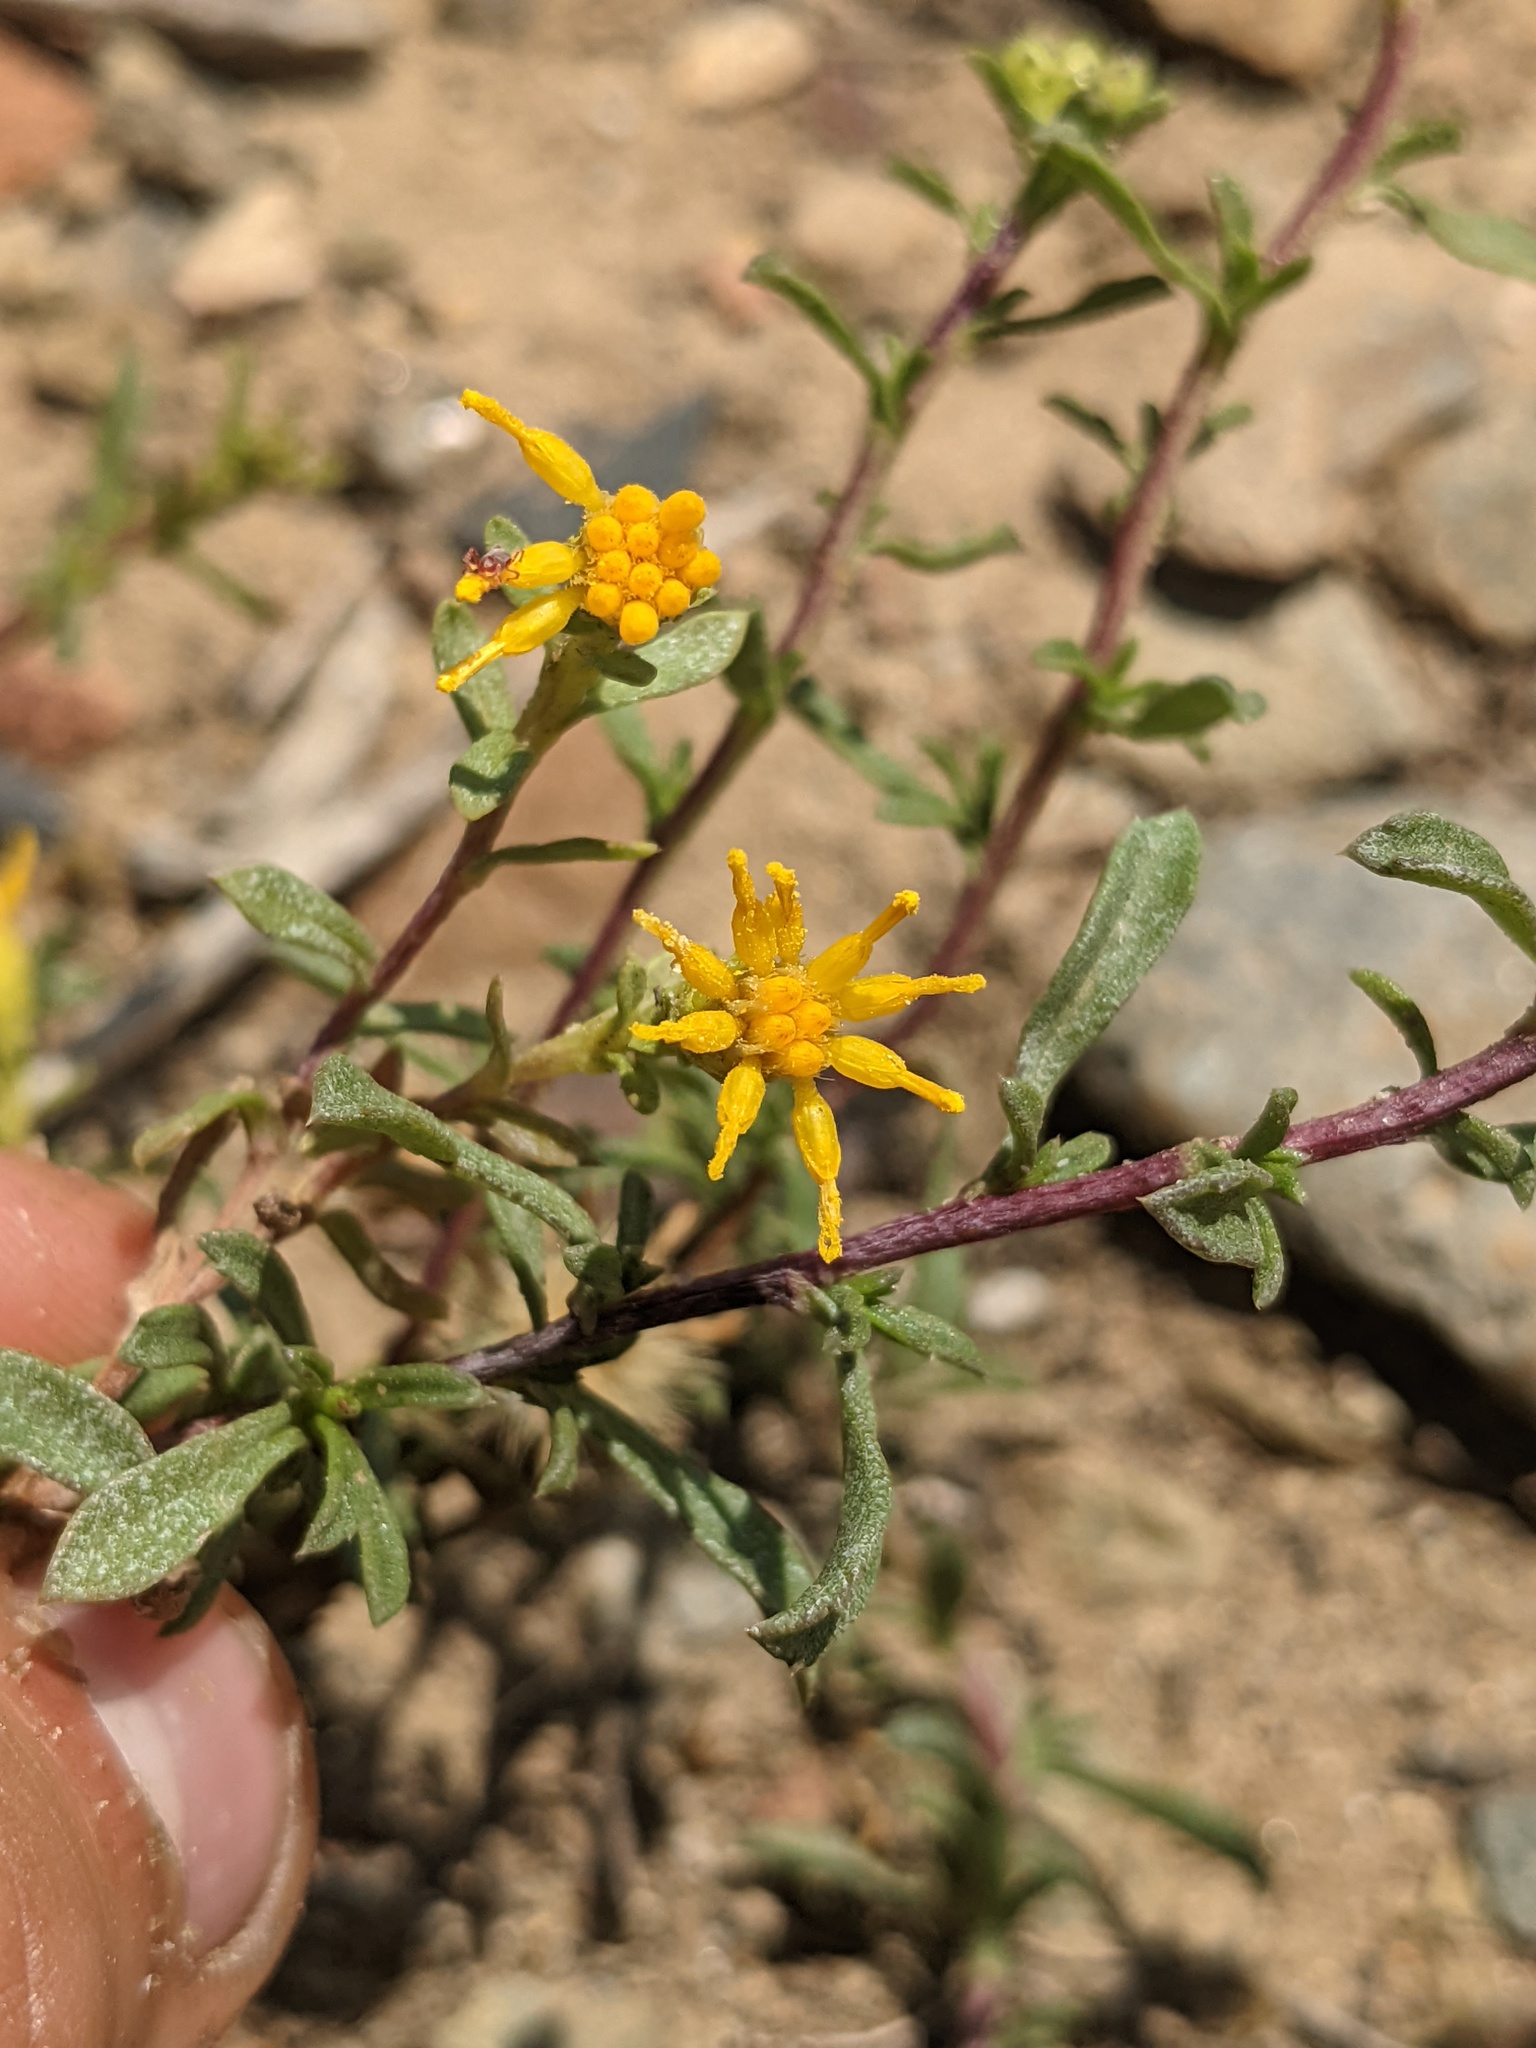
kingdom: Plantae
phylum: Tracheophyta
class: Magnoliopsida
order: Asterales
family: Asteraceae
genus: Isocoma
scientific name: Isocoma menziesii
